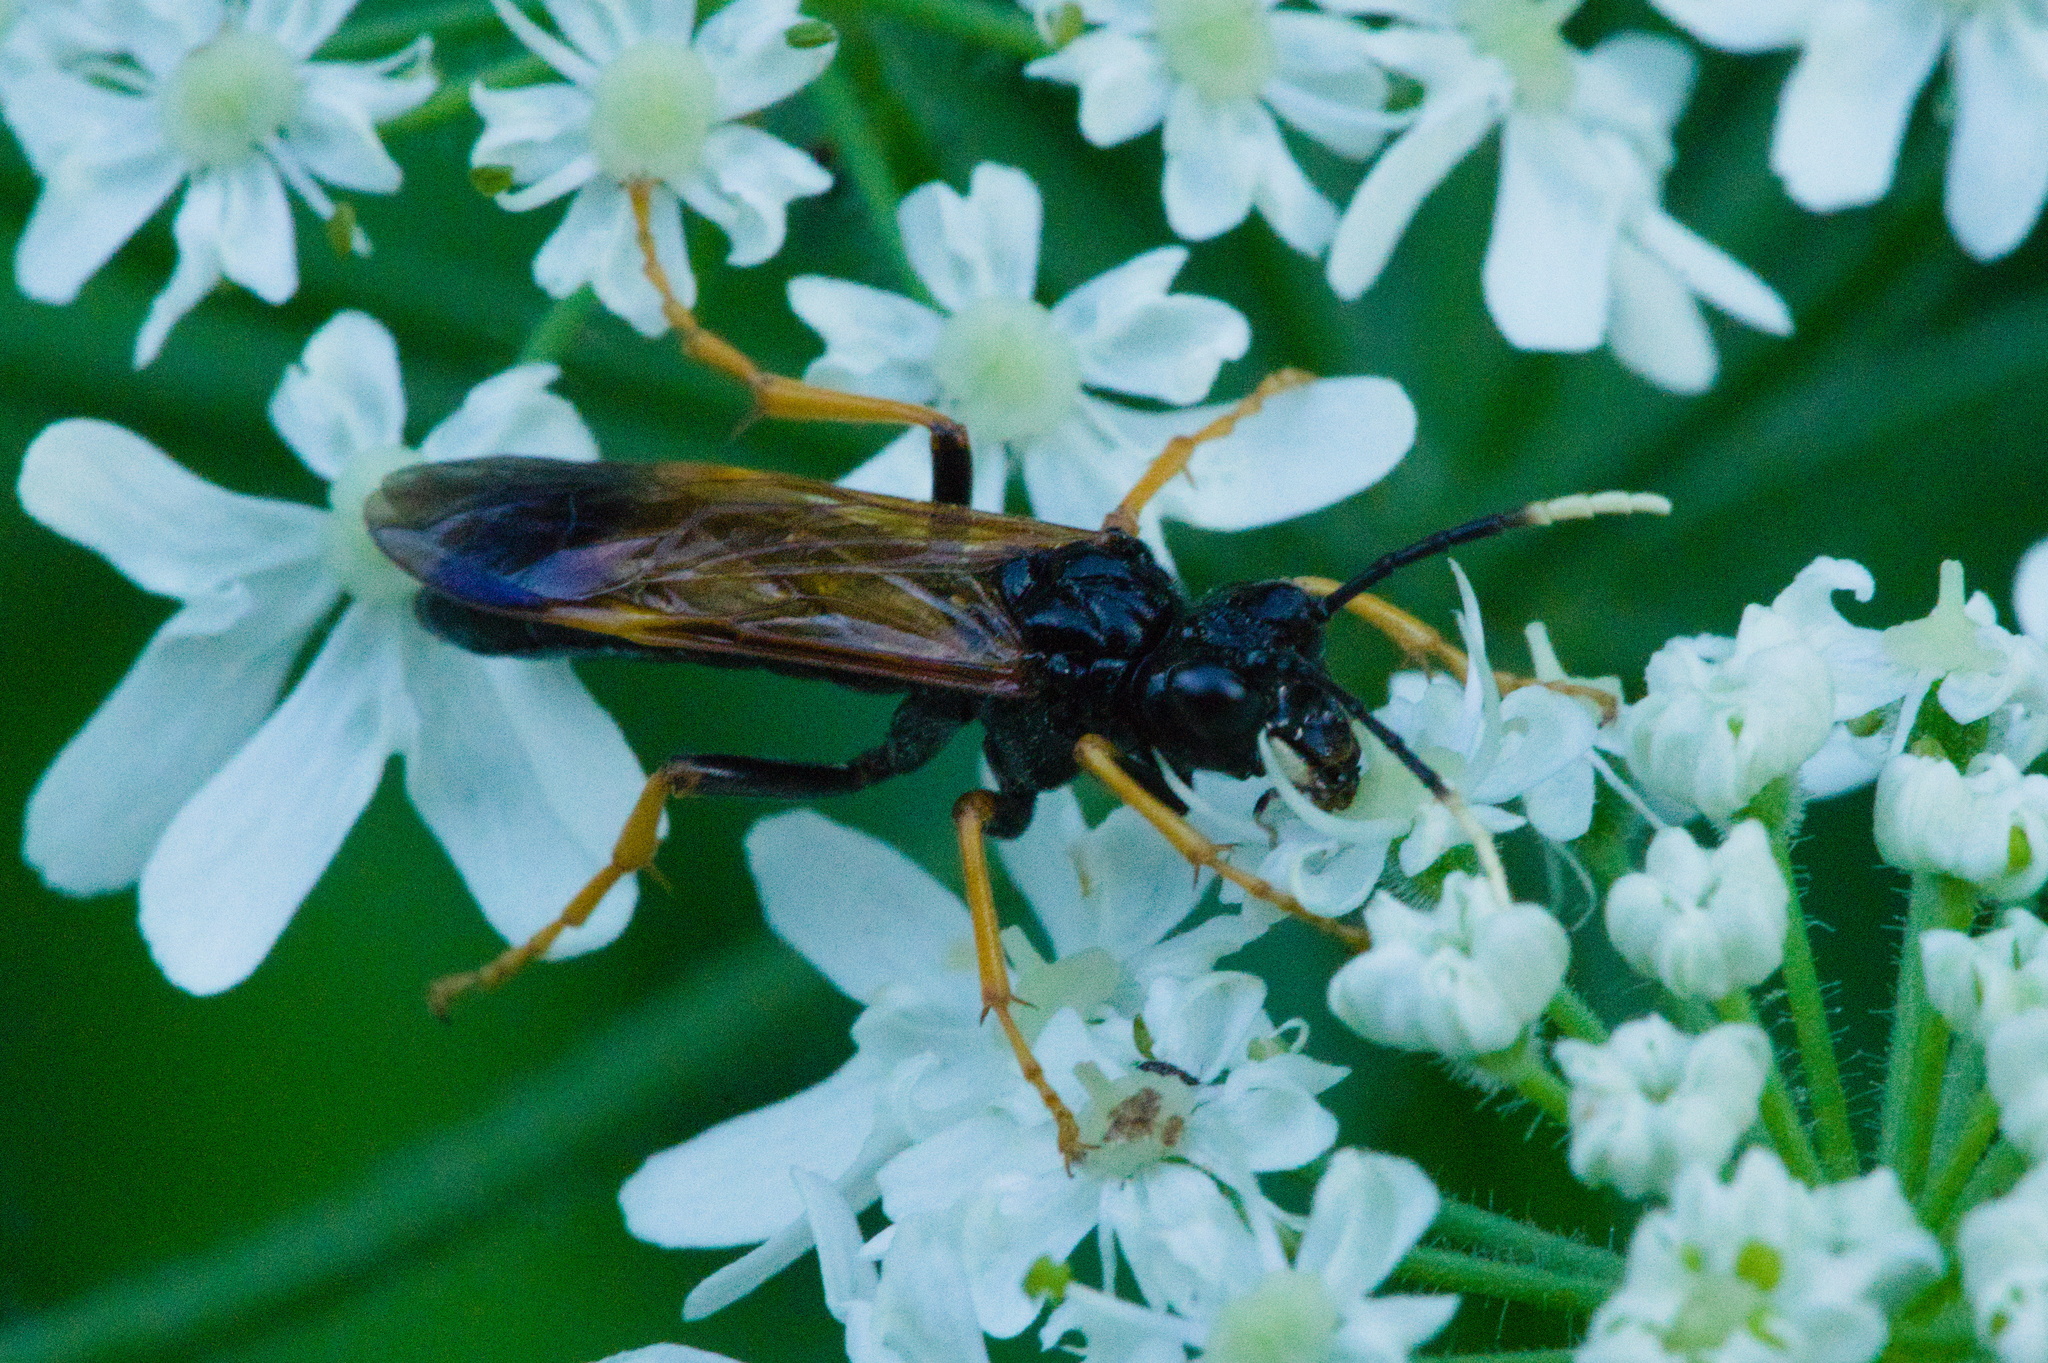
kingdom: Animalia
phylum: Arthropoda
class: Insecta
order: Hymenoptera
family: Tenthredinidae
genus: Tenthredo
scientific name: Tenthredo crassa
